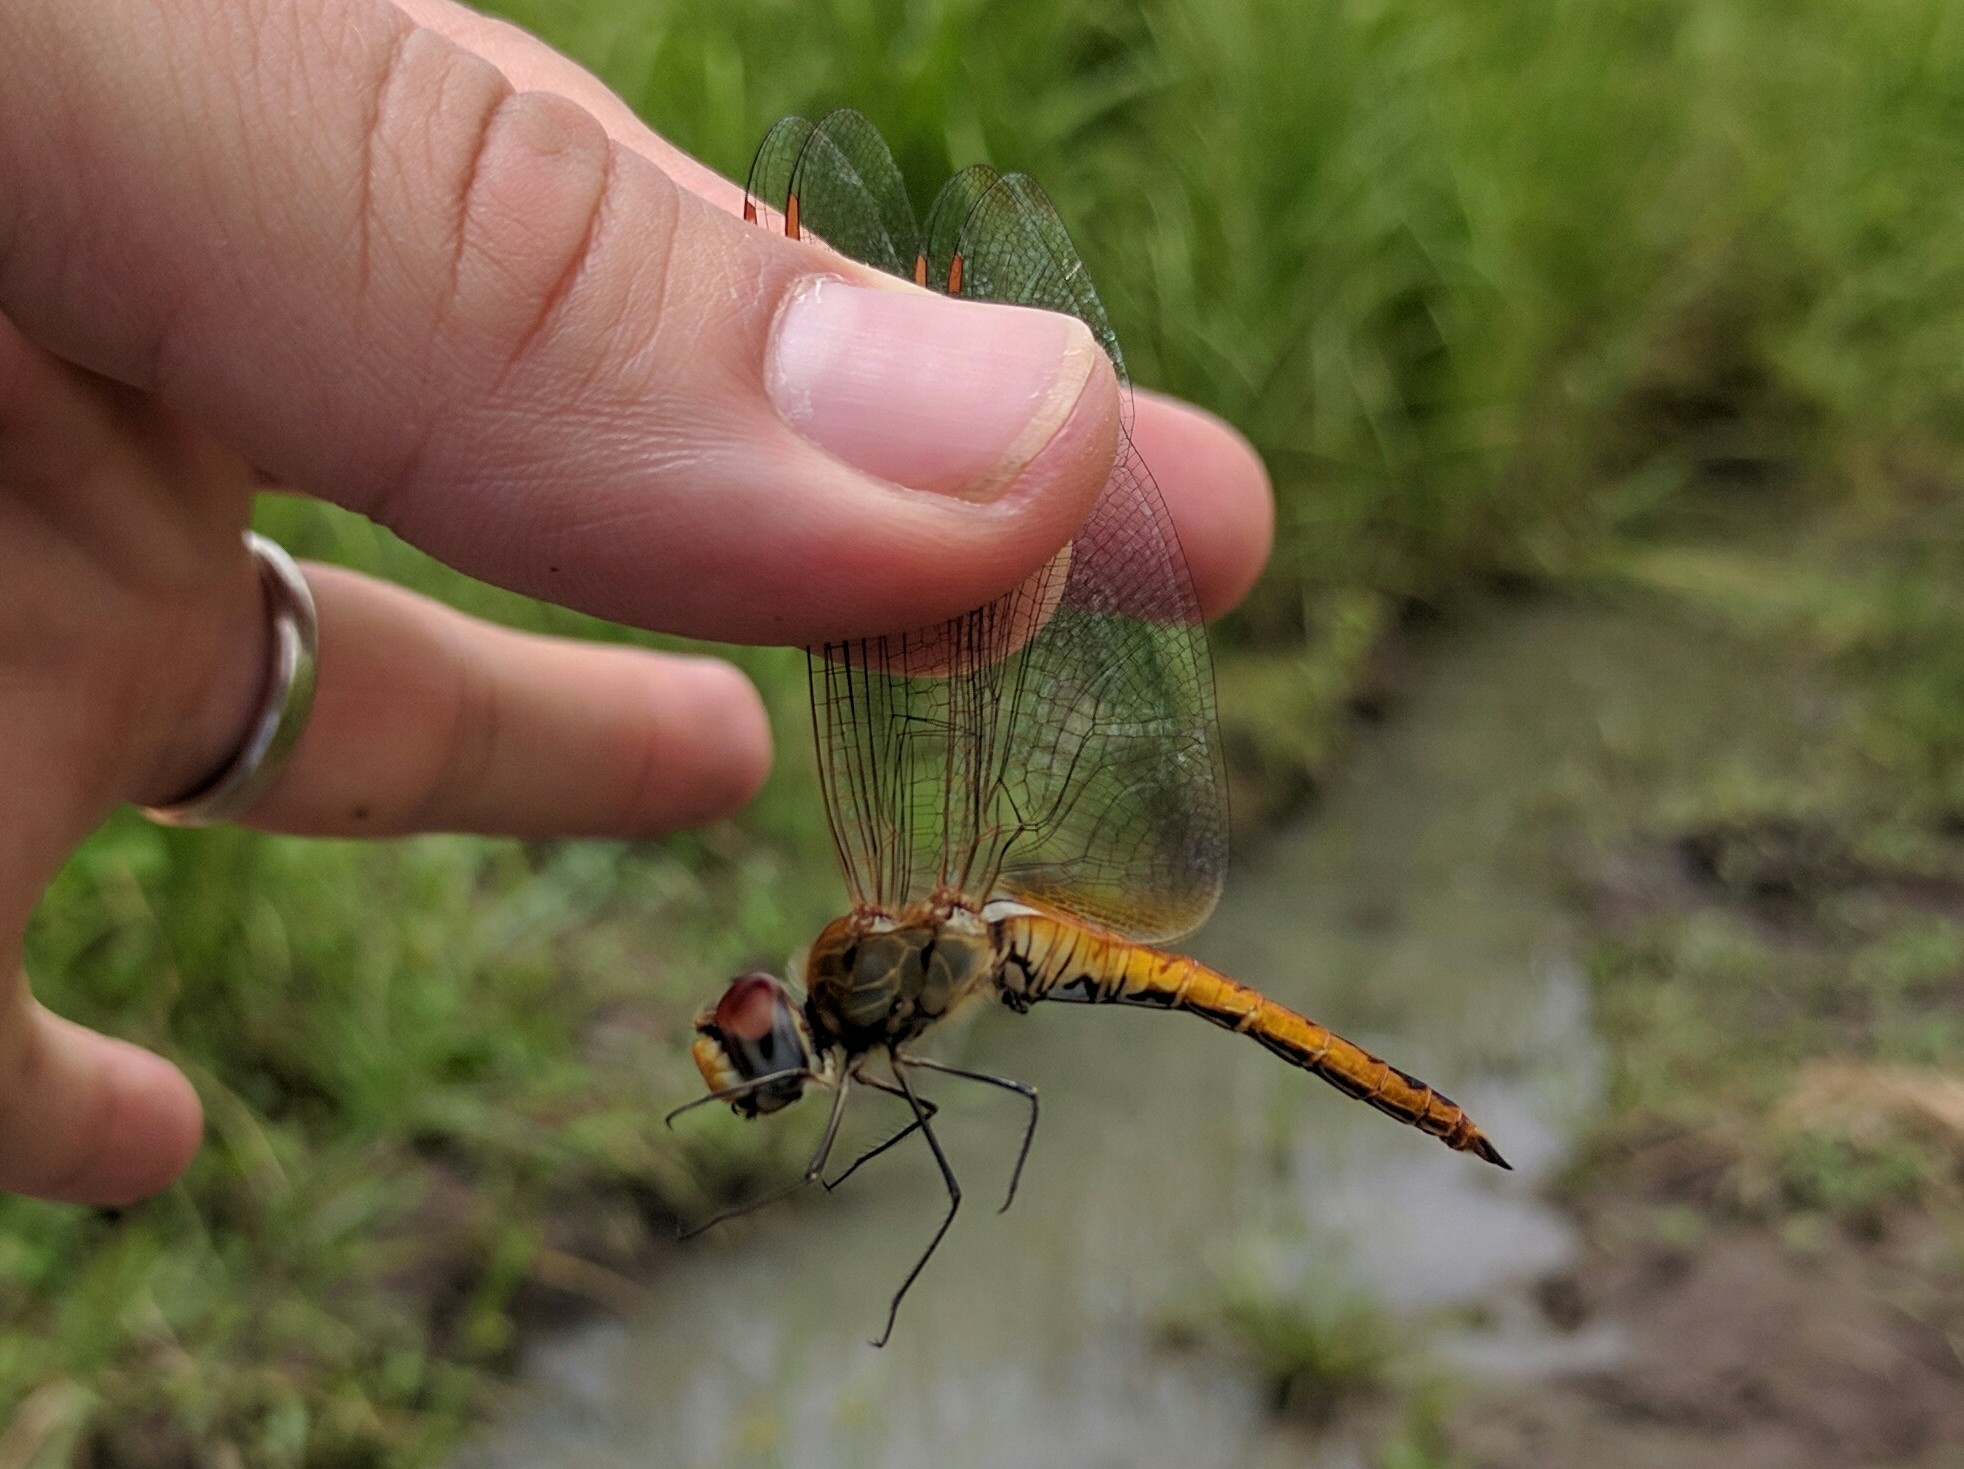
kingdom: Animalia
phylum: Arthropoda
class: Insecta
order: Odonata
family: Libellulidae
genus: Pantala
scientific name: Pantala flavescens
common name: Wandering glider
